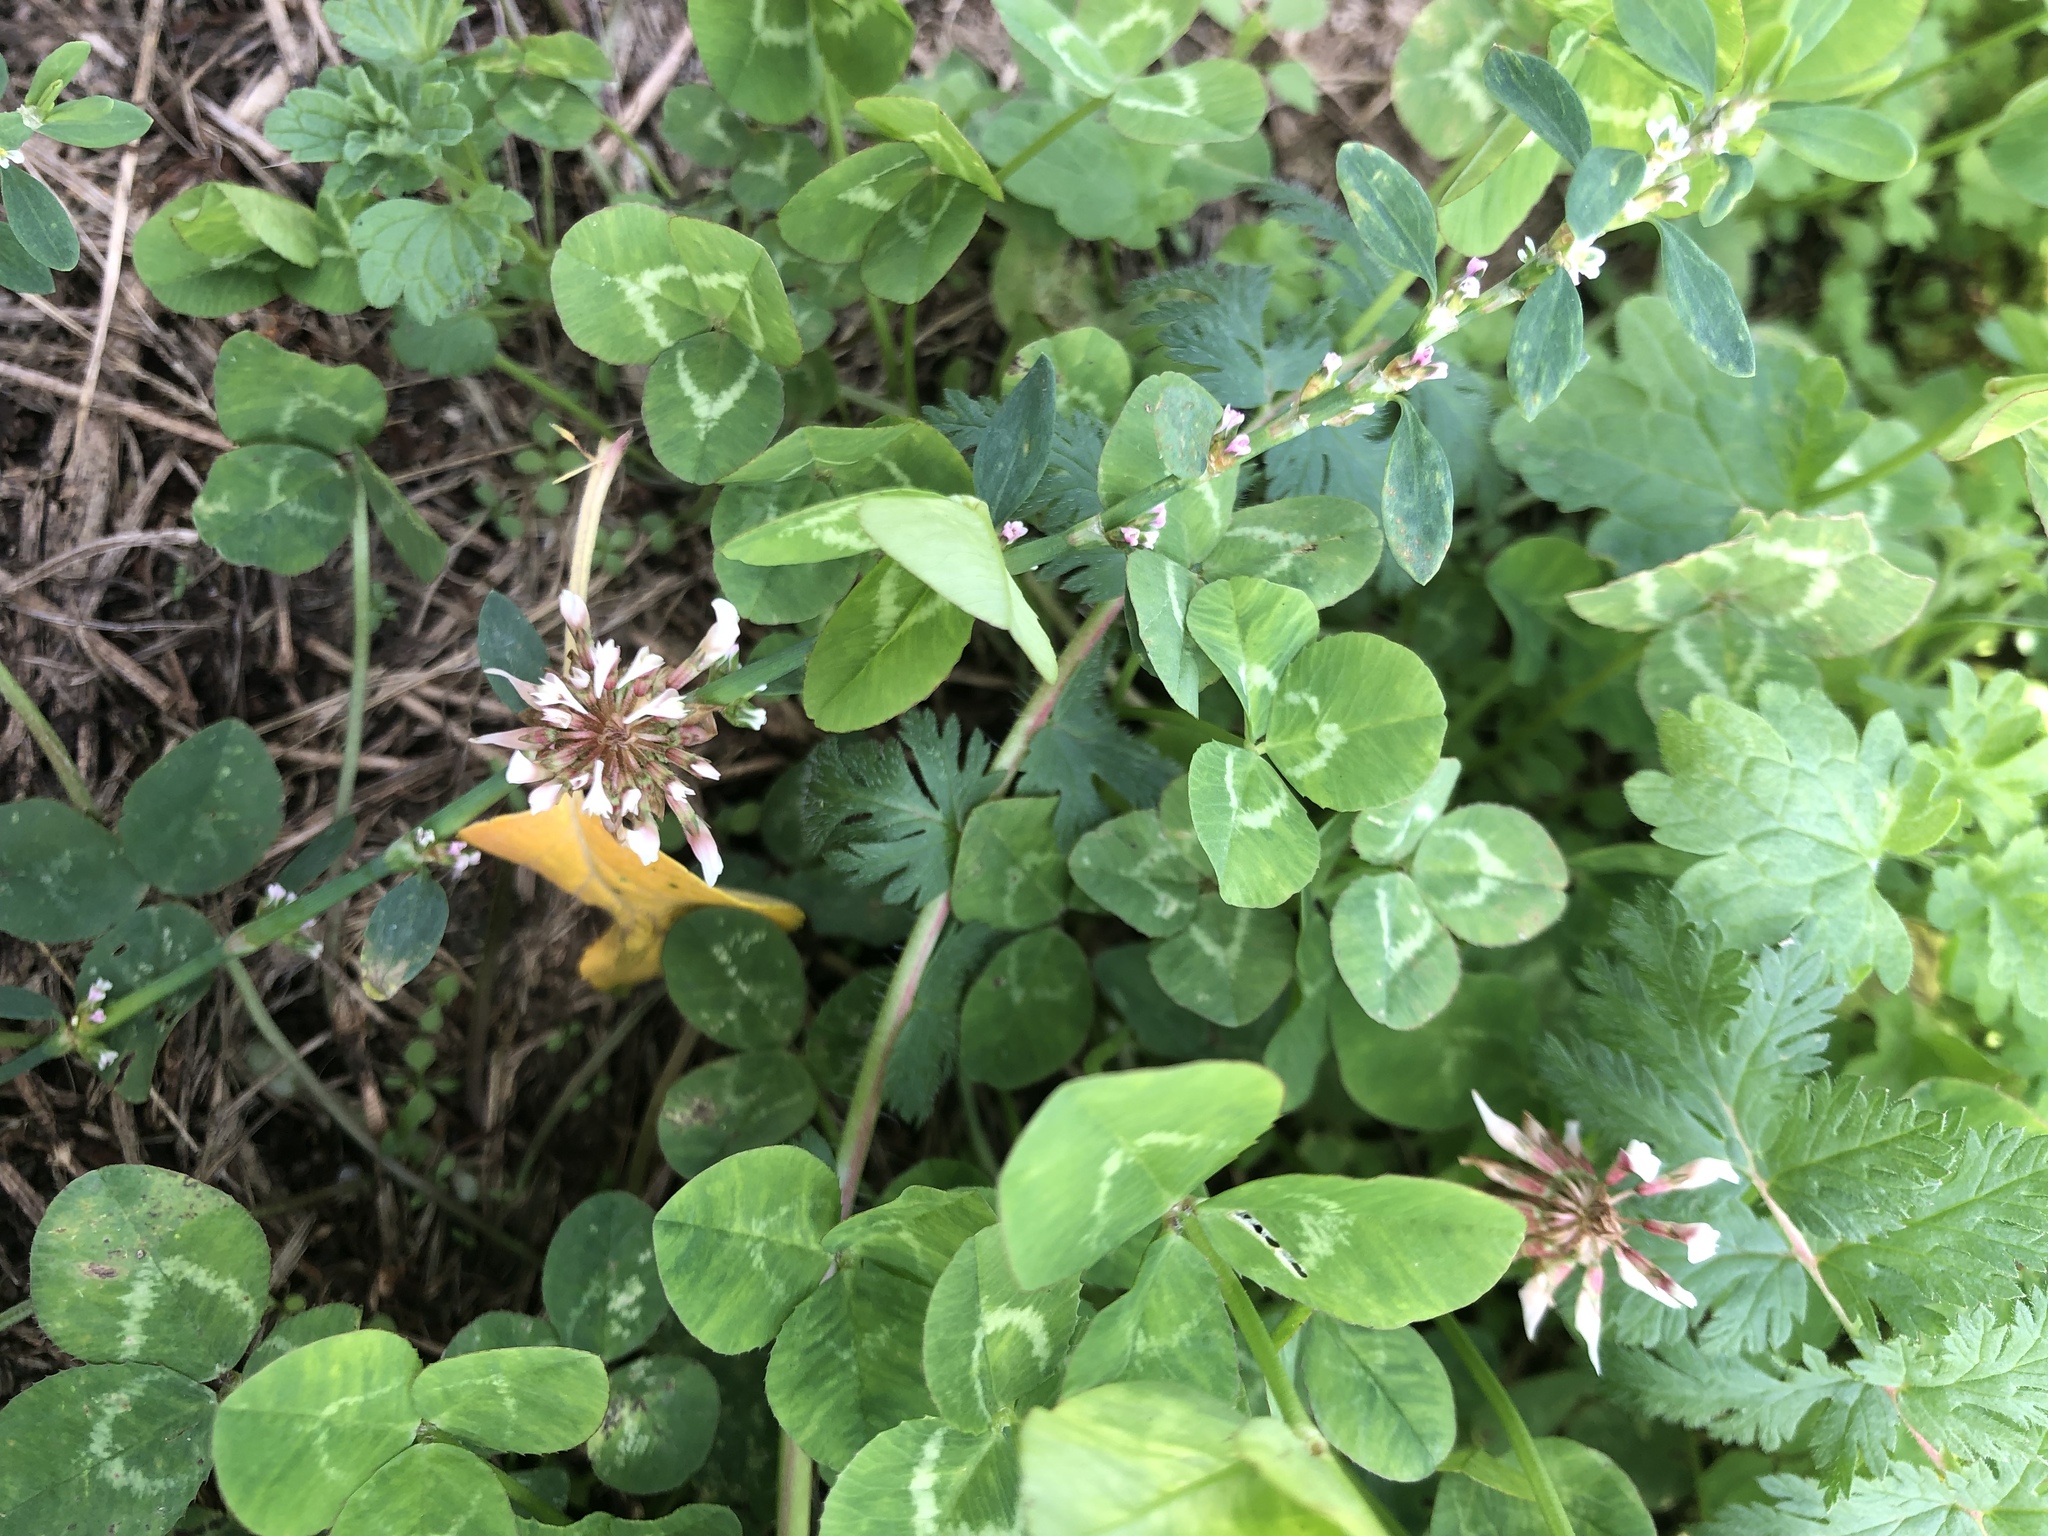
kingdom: Plantae
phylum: Tracheophyta
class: Magnoliopsida
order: Fabales
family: Fabaceae
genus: Trifolium
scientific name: Trifolium repens
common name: White clover
